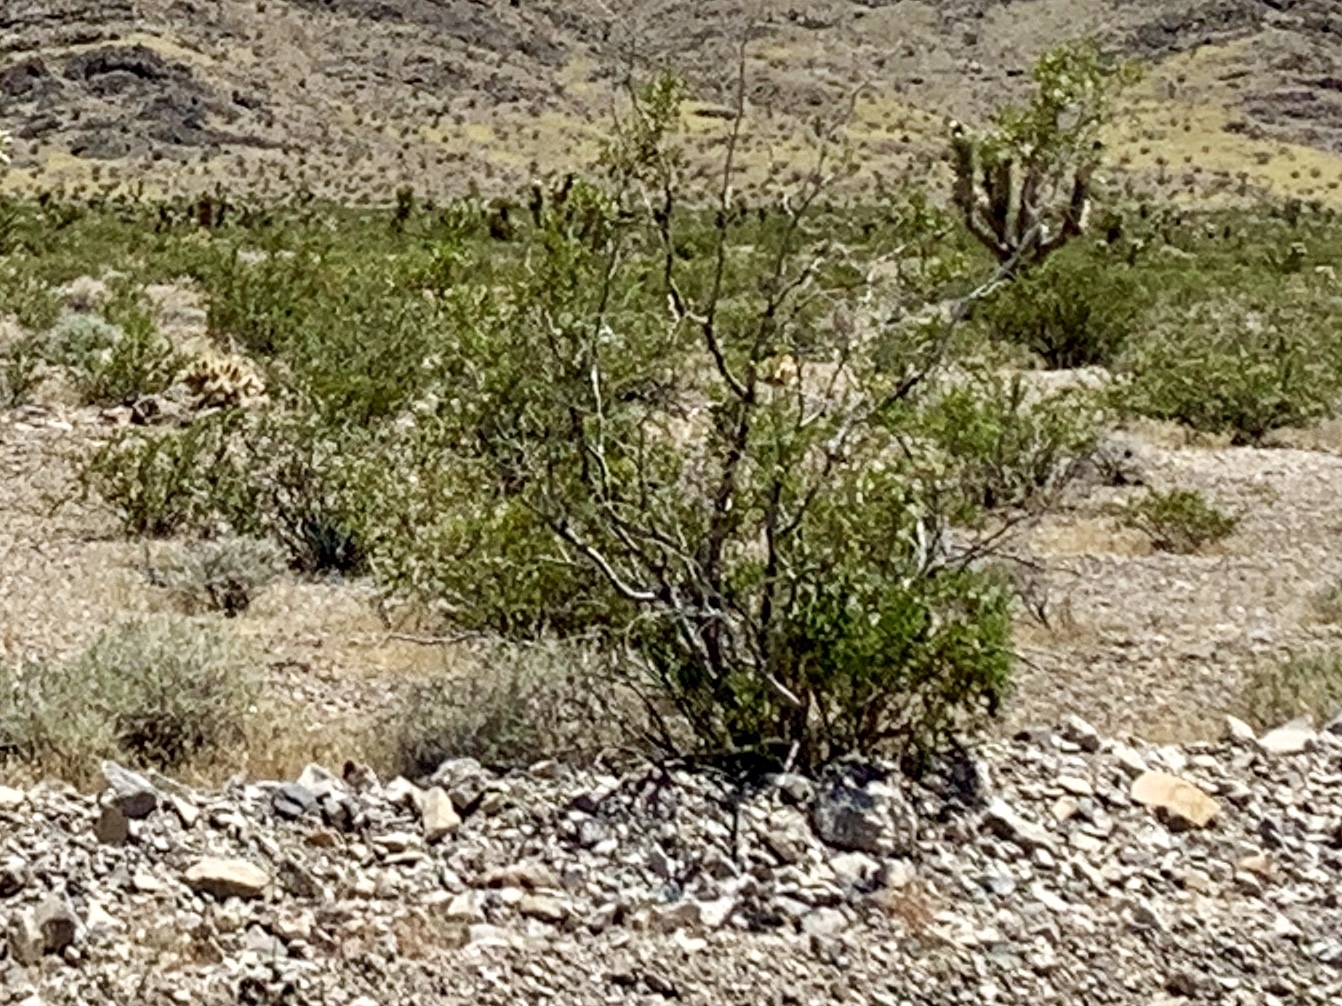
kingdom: Plantae
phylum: Tracheophyta
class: Magnoliopsida
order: Zygophyllales
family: Zygophyllaceae
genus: Larrea
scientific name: Larrea tridentata
